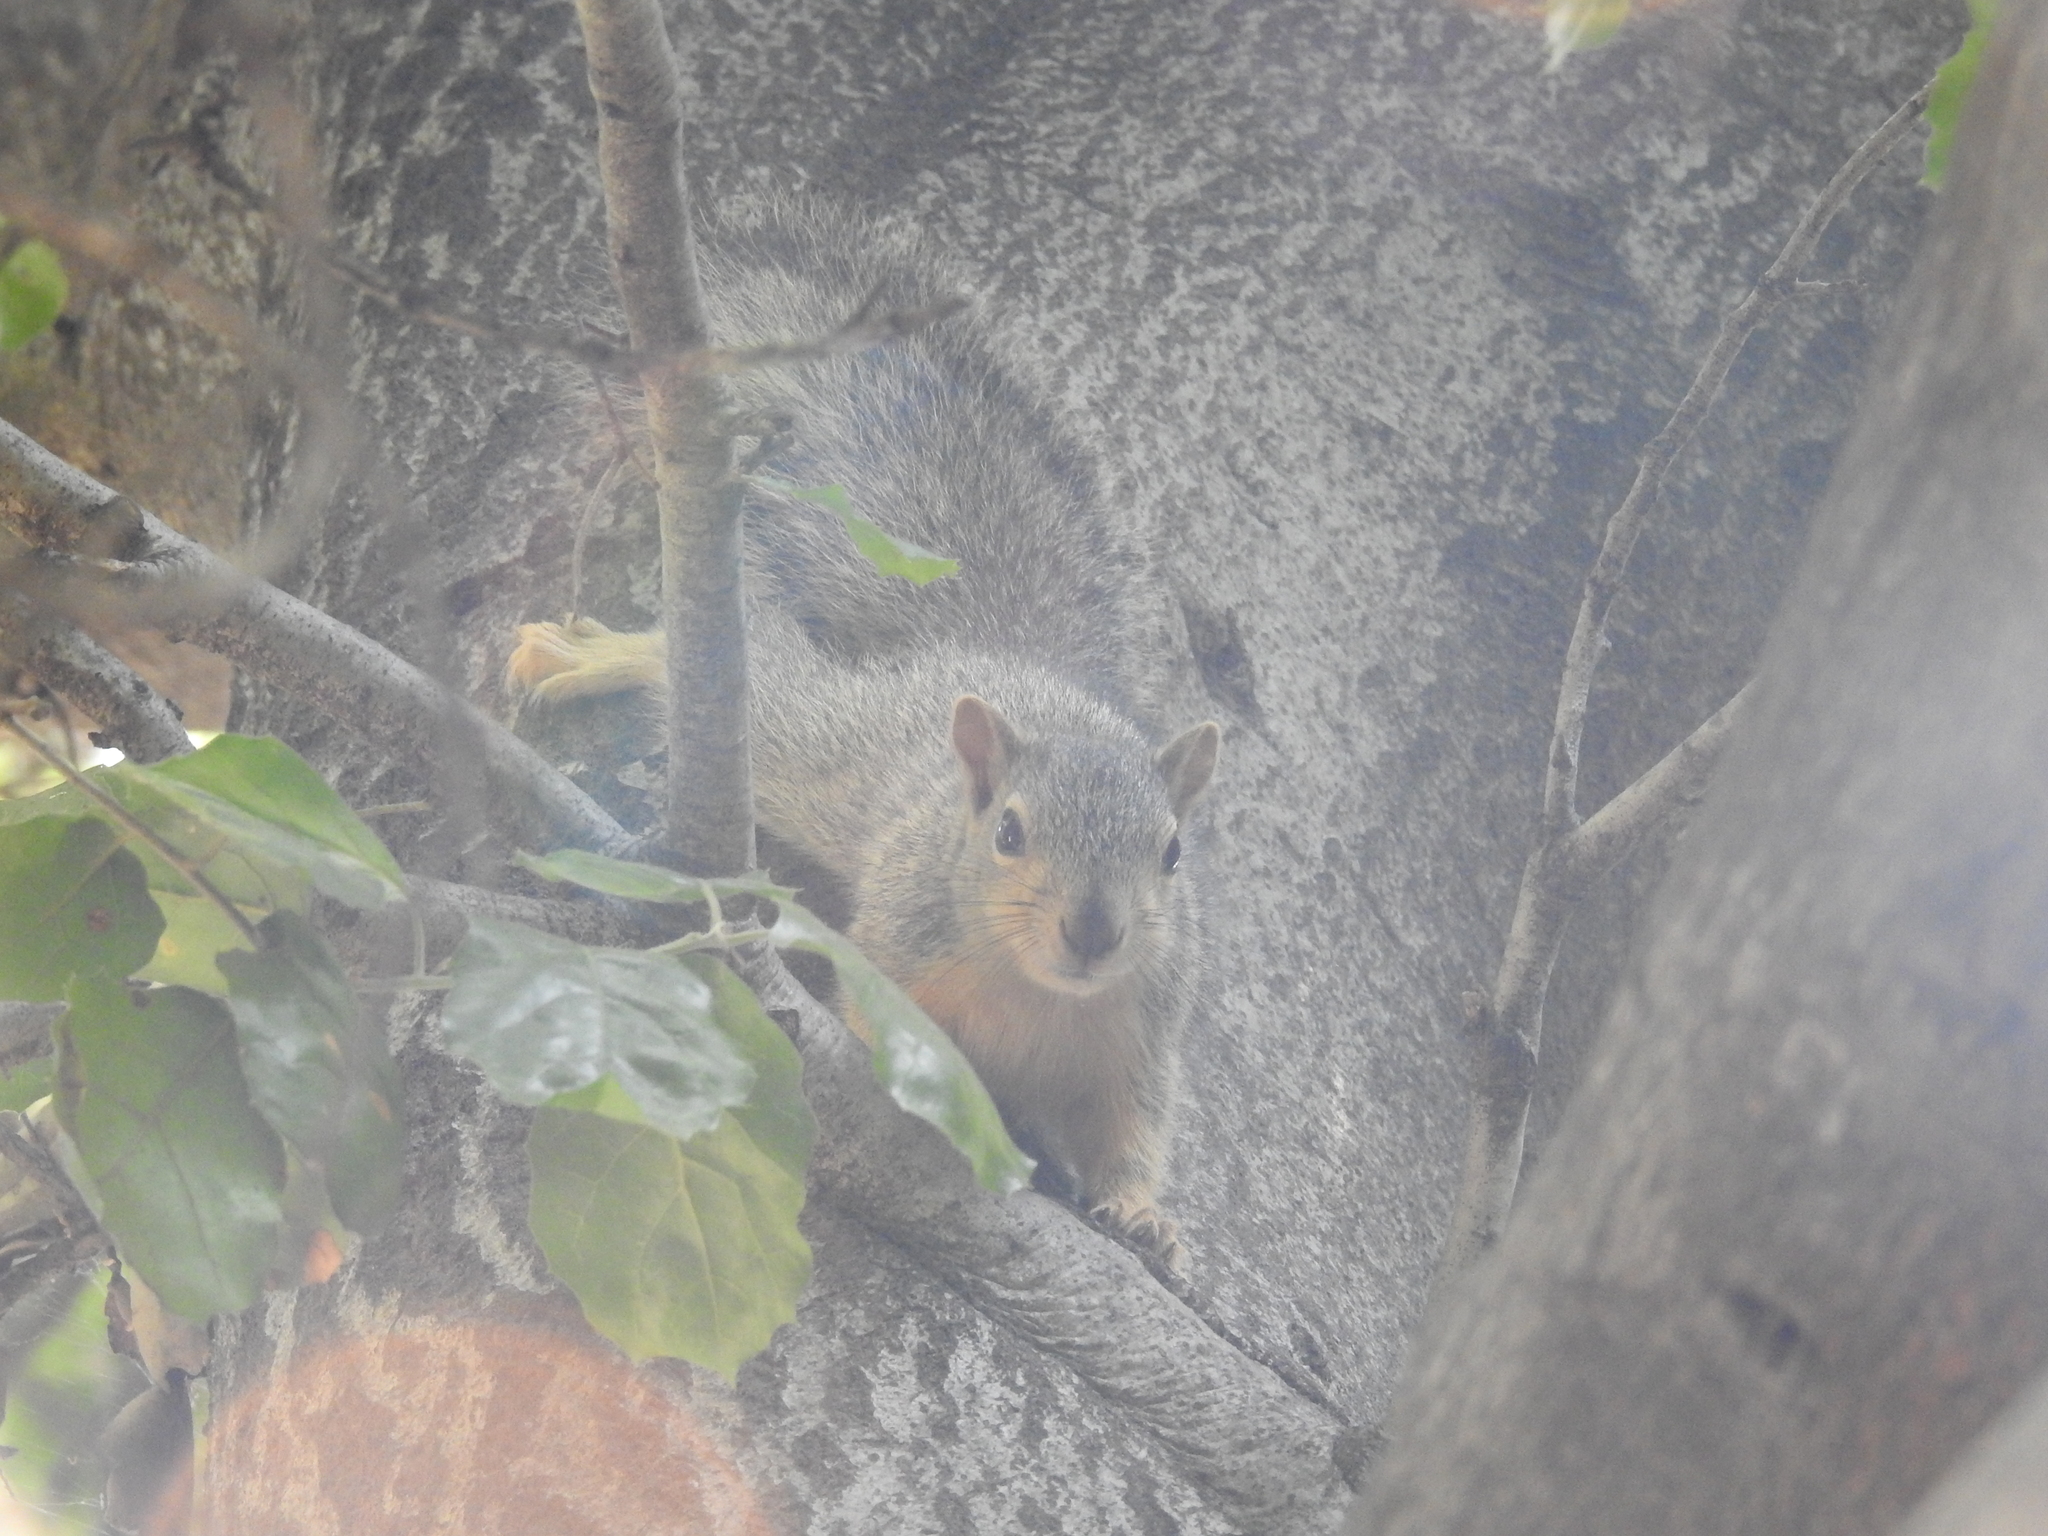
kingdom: Animalia
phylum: Chordata
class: Mammalia
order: Rodentia
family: Sciuridae
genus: Sciurus
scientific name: Sciurus niger
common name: Fox squirrel
